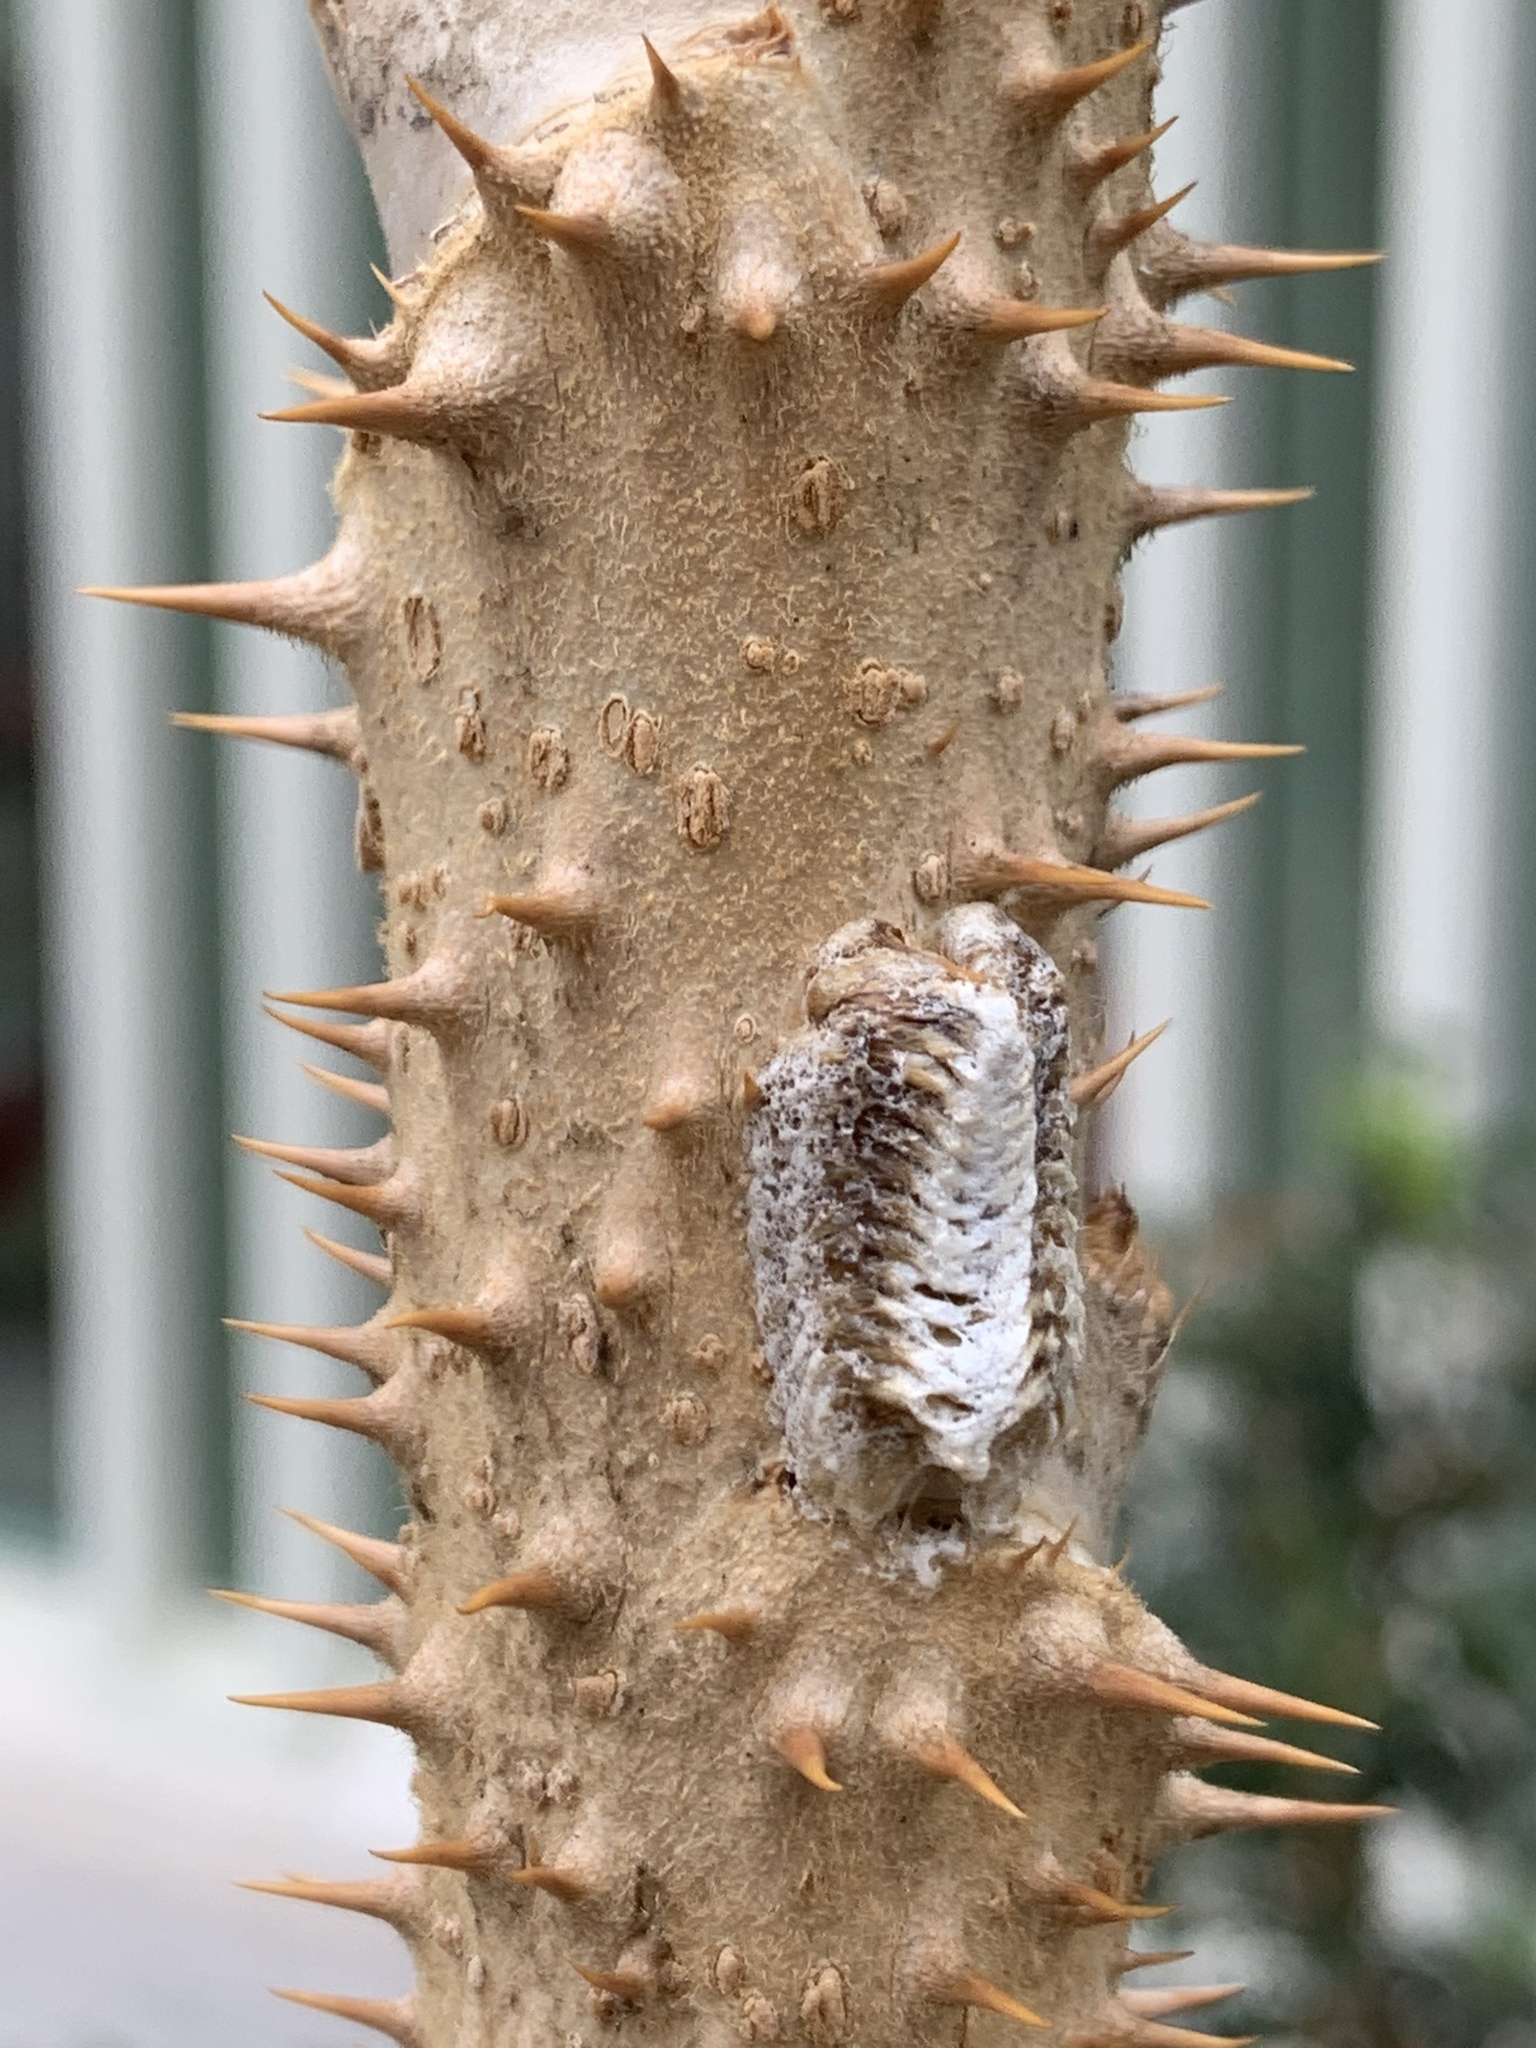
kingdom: Animalia
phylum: Arthropoda
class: Insecta
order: Mantodea
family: Mantidae
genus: Stagmomantis
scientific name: Stagmomantis carolina
